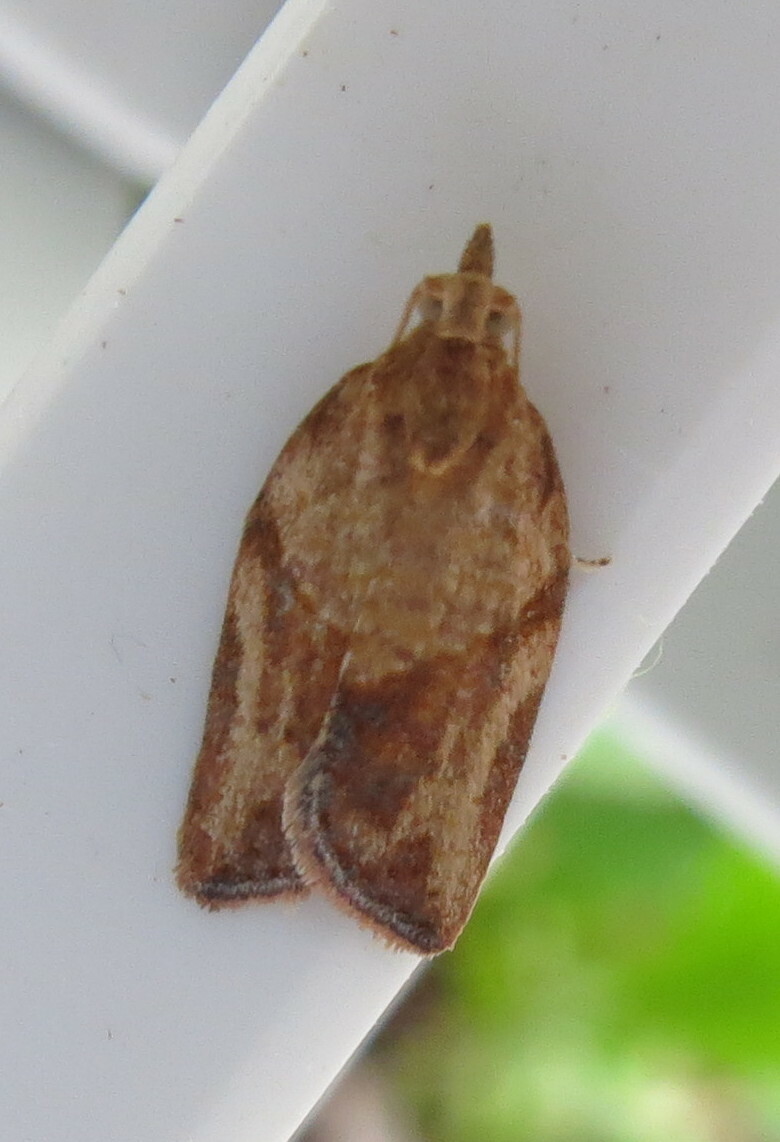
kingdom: Animalia
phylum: Arthropoda
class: Insecta
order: Lepidoptera
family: Tortricidae
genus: Epiphyas
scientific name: Epiphyas postvittana
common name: Light brown apple moth
